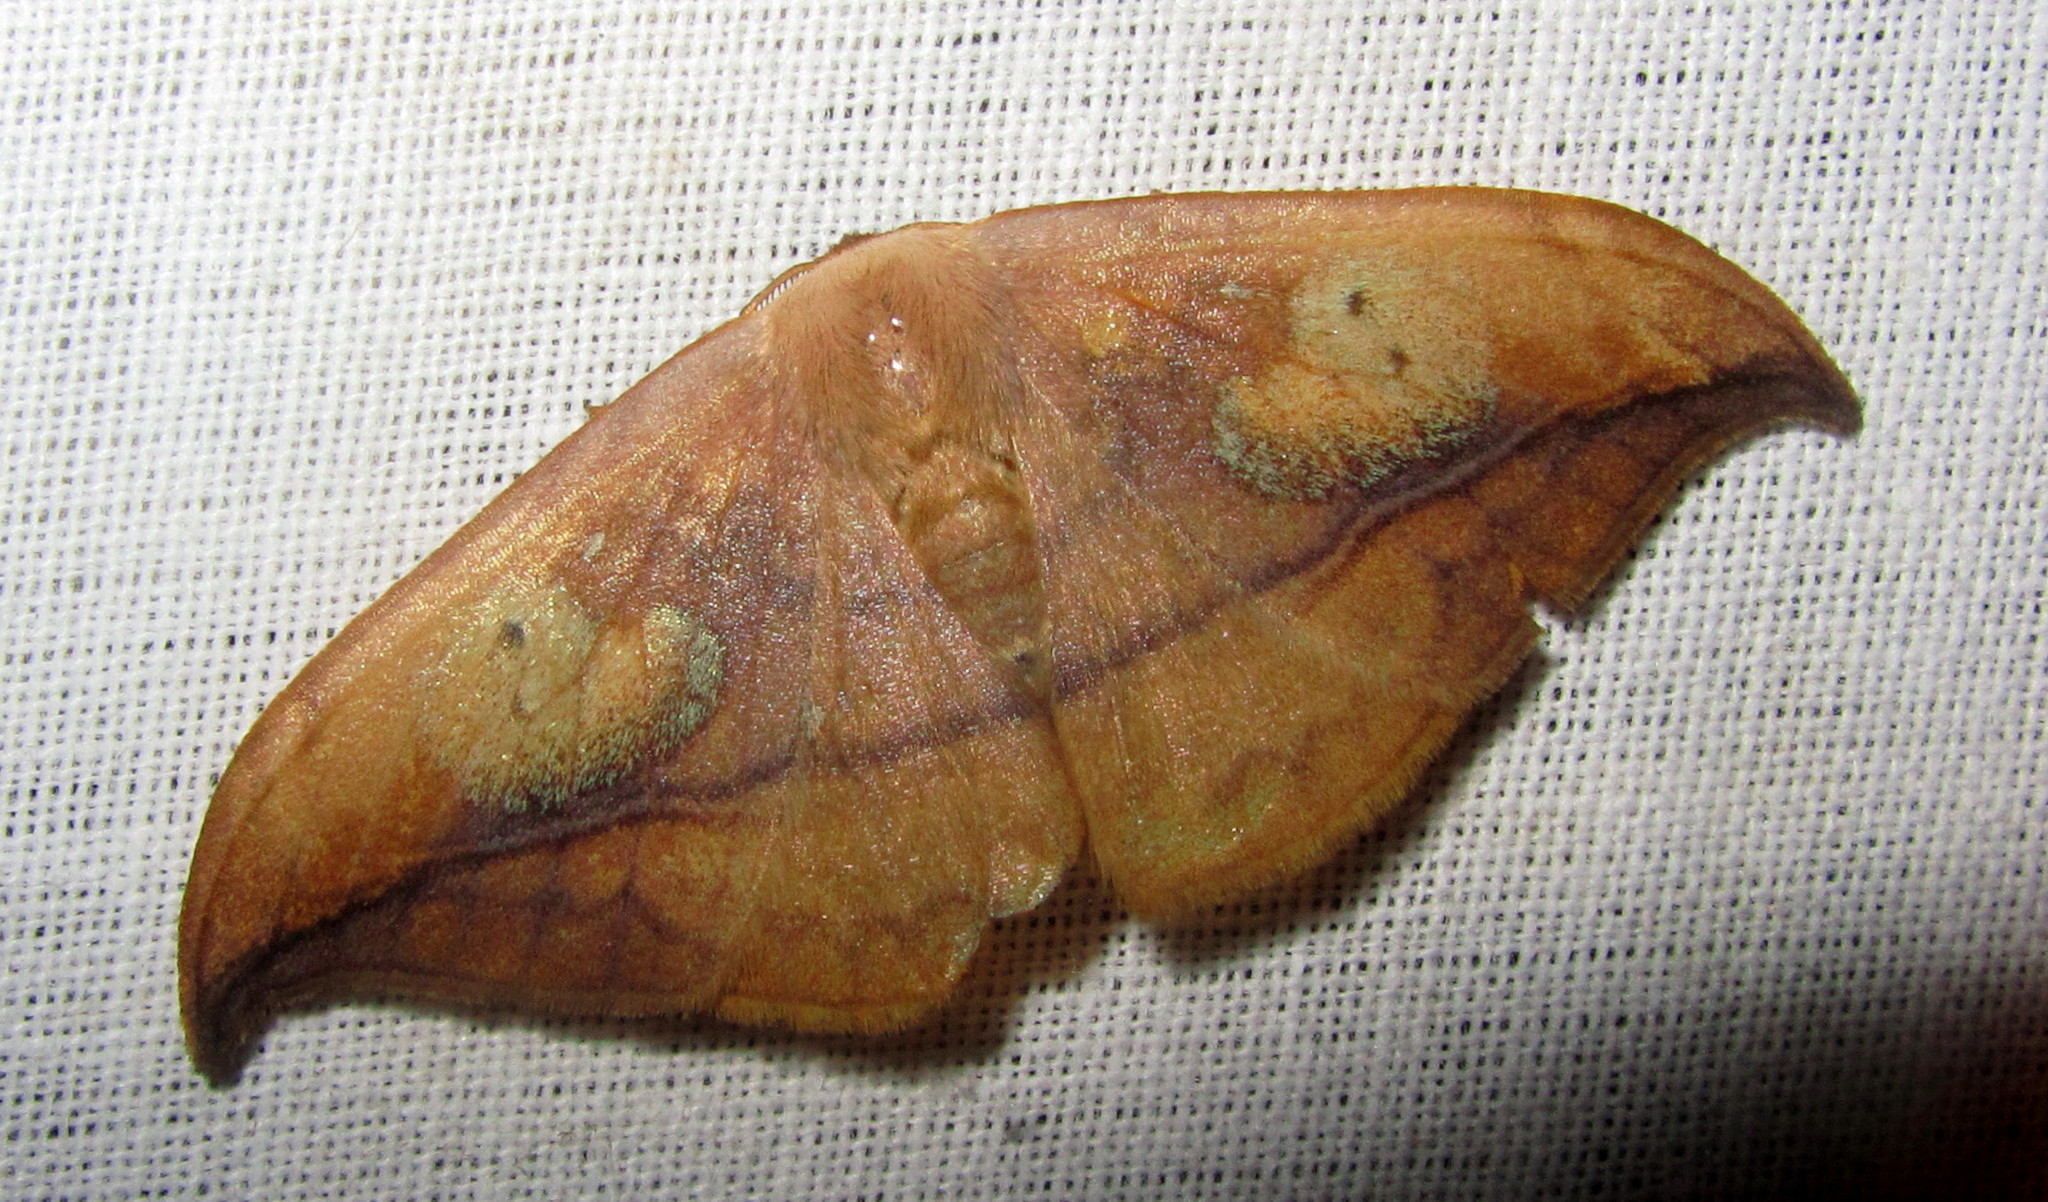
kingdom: Animalia
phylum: Arthropoda
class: Insecta
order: Lepidoptera
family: Drepanidae
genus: Agnidra
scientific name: Agnidra vinacea
